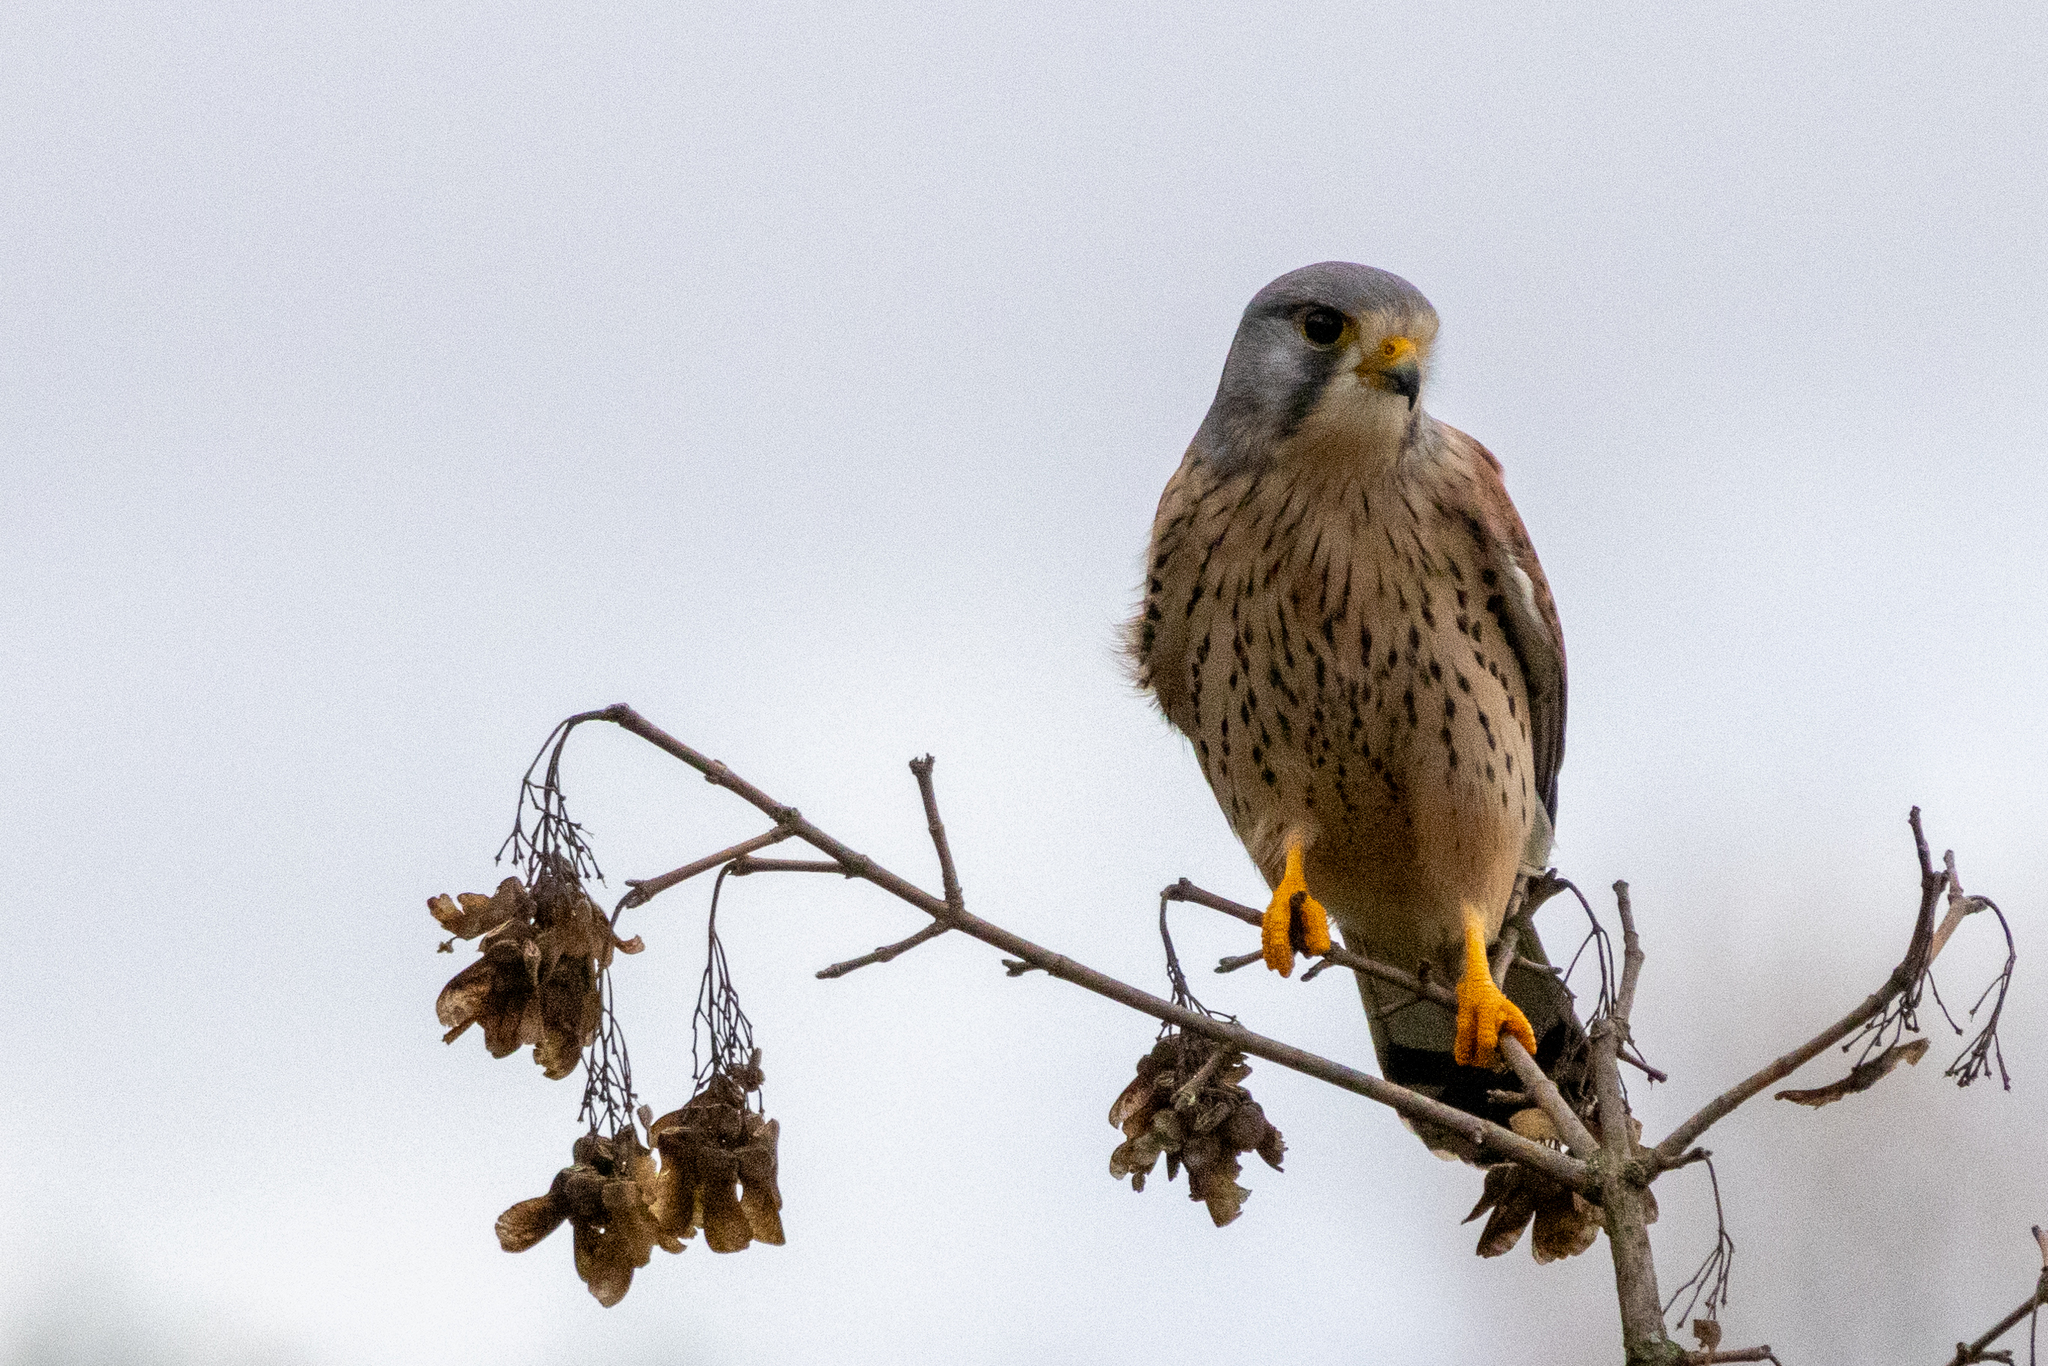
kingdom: Animalia
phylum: Chordata
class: Aves
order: Falconiformes
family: Falconidae
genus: Falco
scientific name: Falco tinnunculus
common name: Common kestrel
